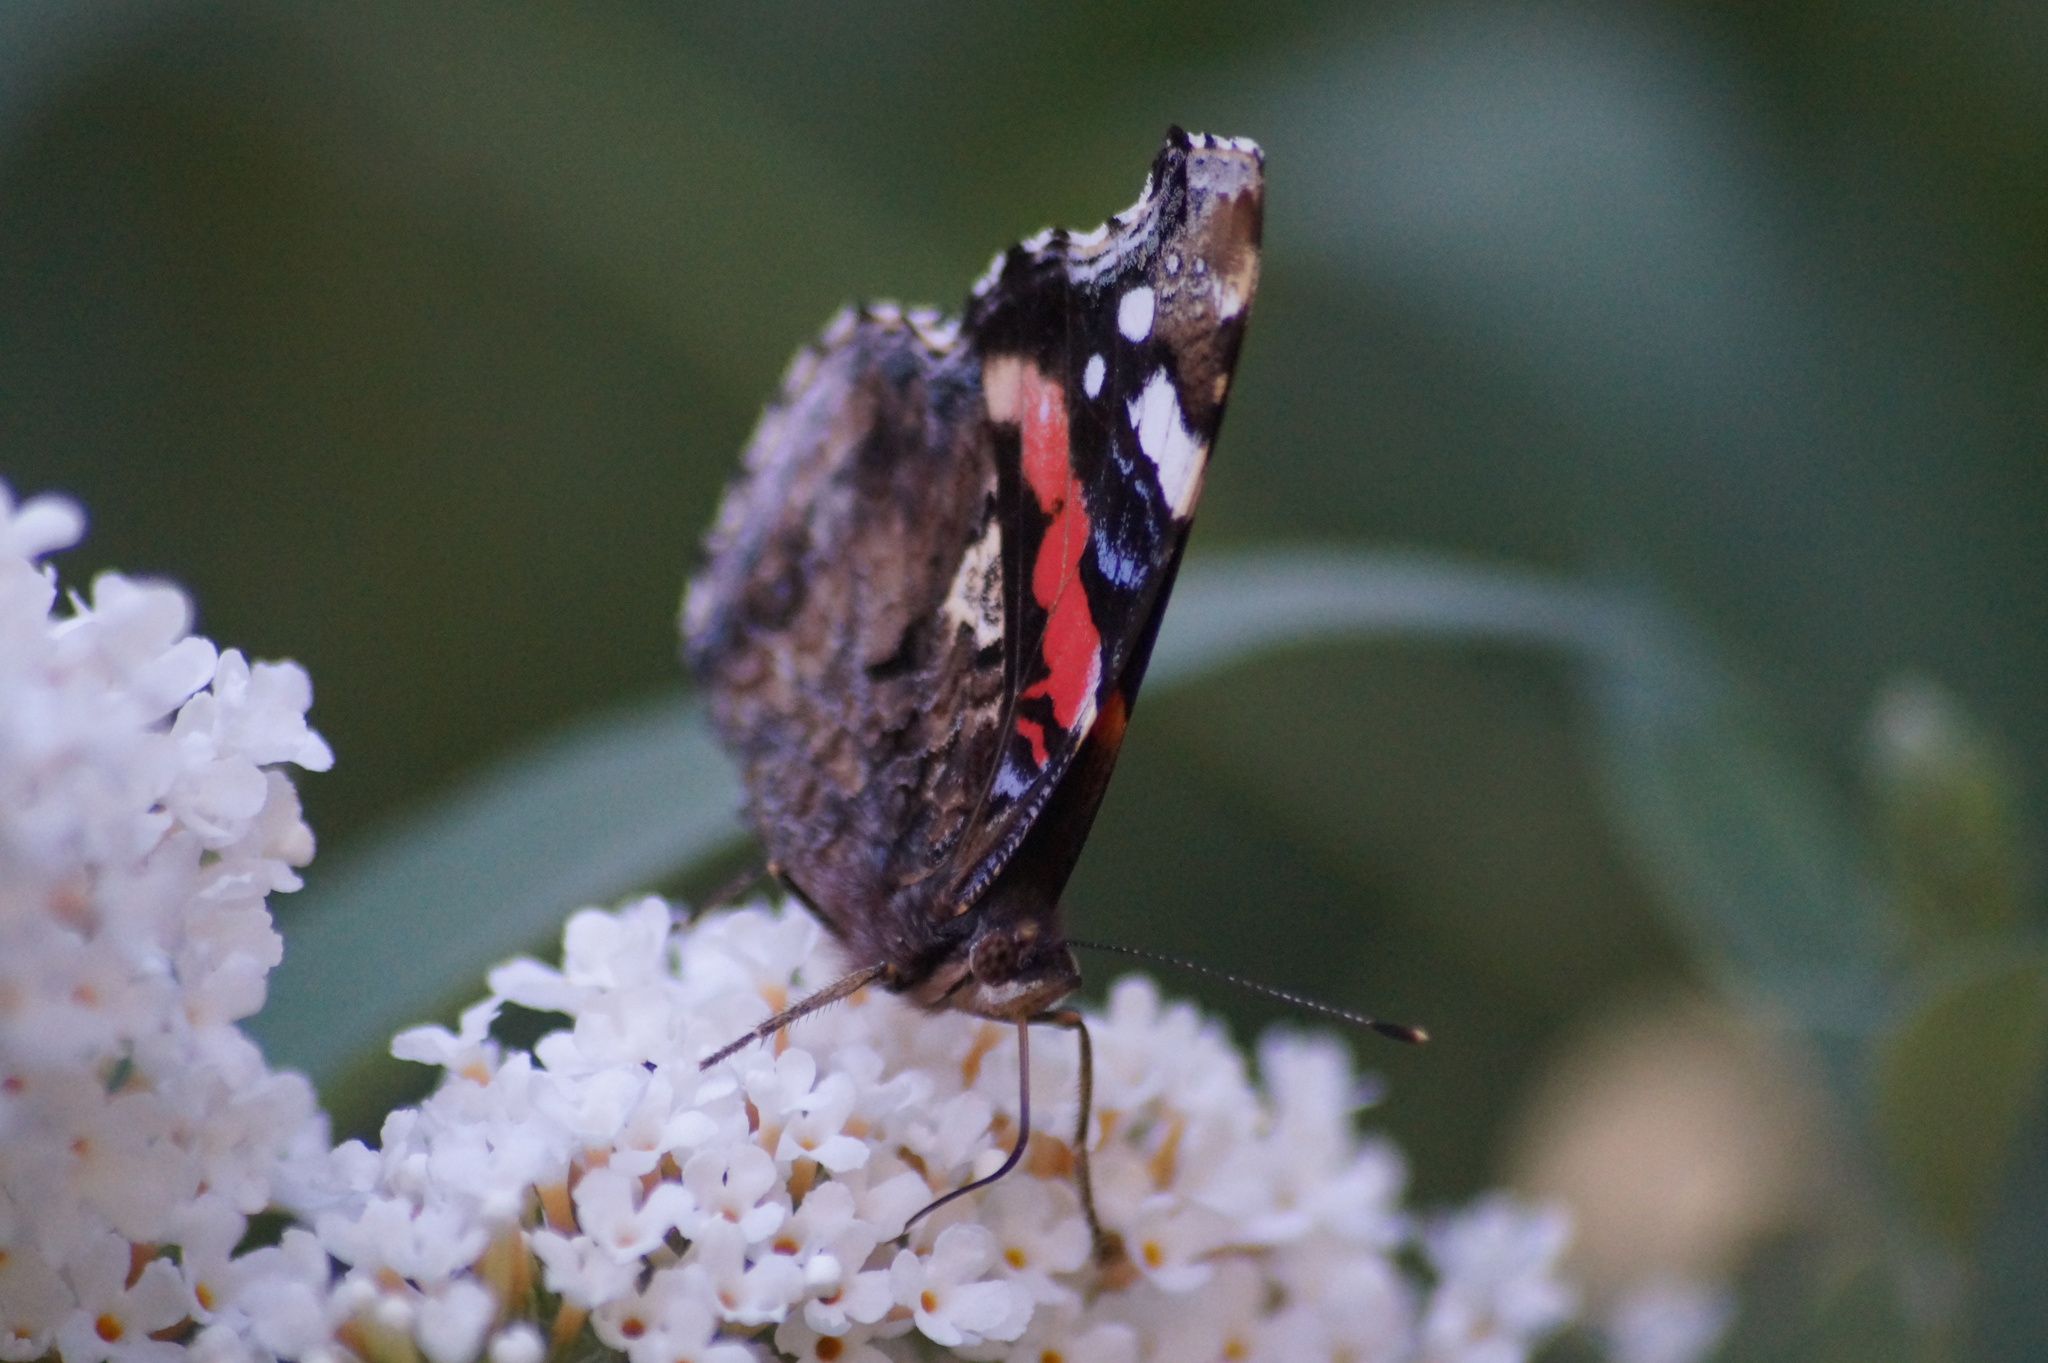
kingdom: Animalia
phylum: Arthropoda
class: Insecta
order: Lepidoptera
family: Nymphalidae
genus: Vanessa
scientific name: Vanessa atalanta
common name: Red admiral
